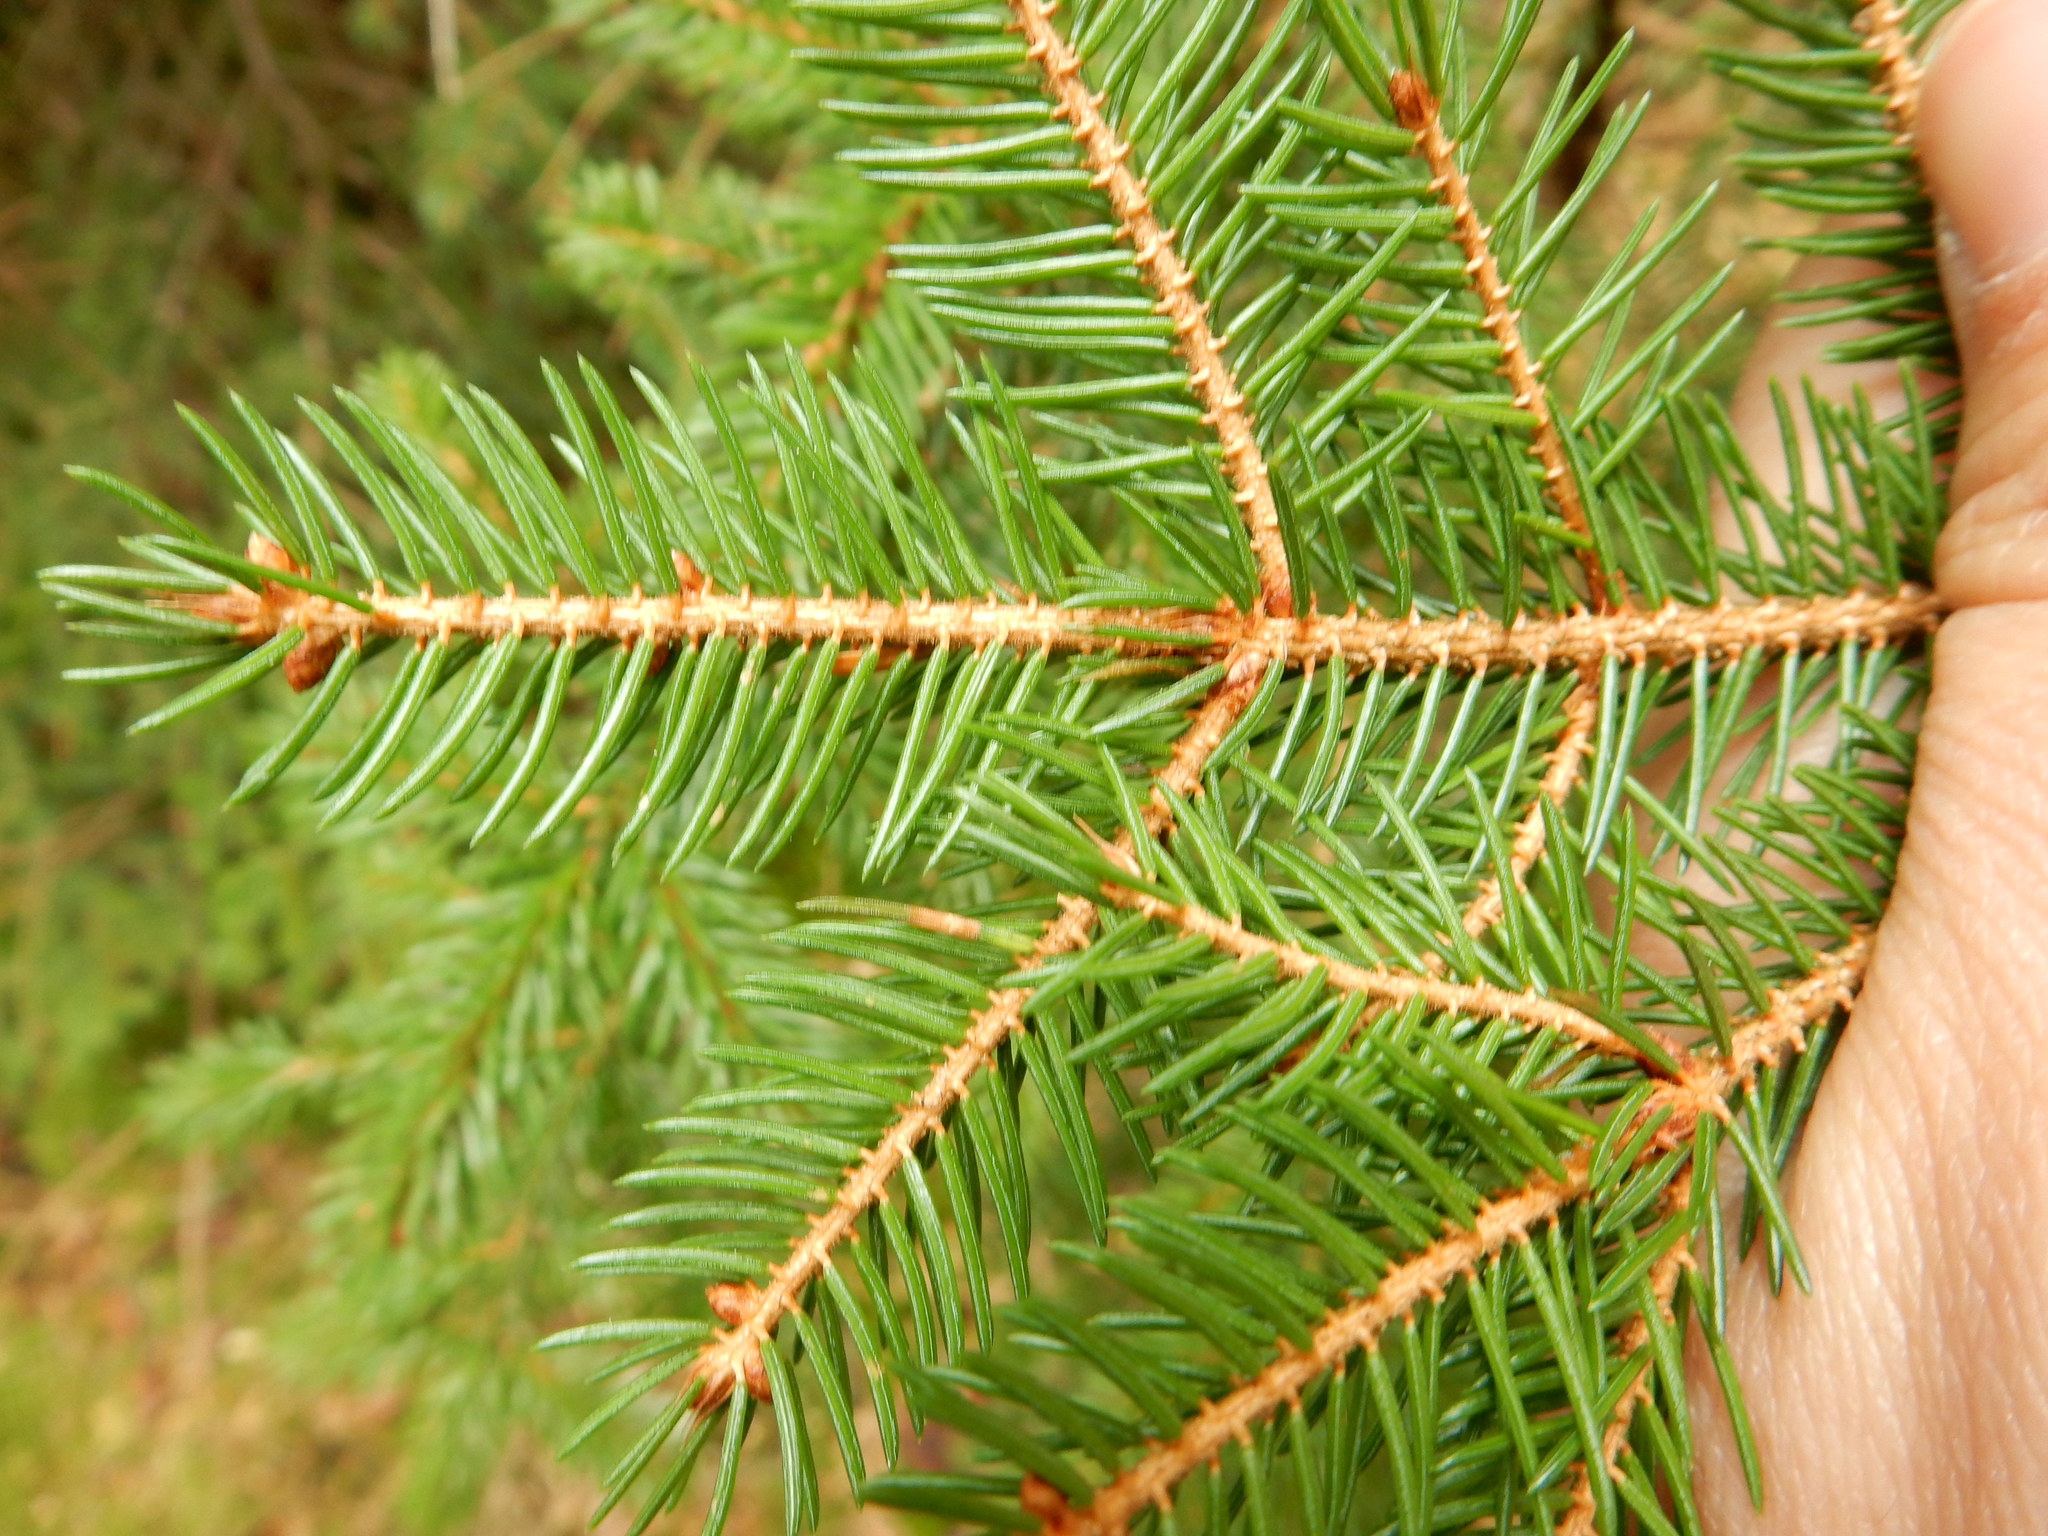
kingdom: Plantae
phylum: Tracheophyta
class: Pinopsida
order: Pinales
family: Pinaceae
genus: Picea
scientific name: Picea rubens
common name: Red spruce
